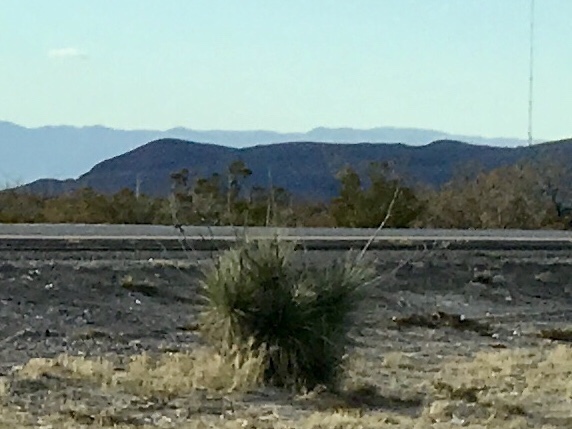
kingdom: Plantae
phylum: Tracheophyta
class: Liliopsida
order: Asparagales
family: Asparagaceae
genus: Yucca
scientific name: Yucca elata
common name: Palmella
